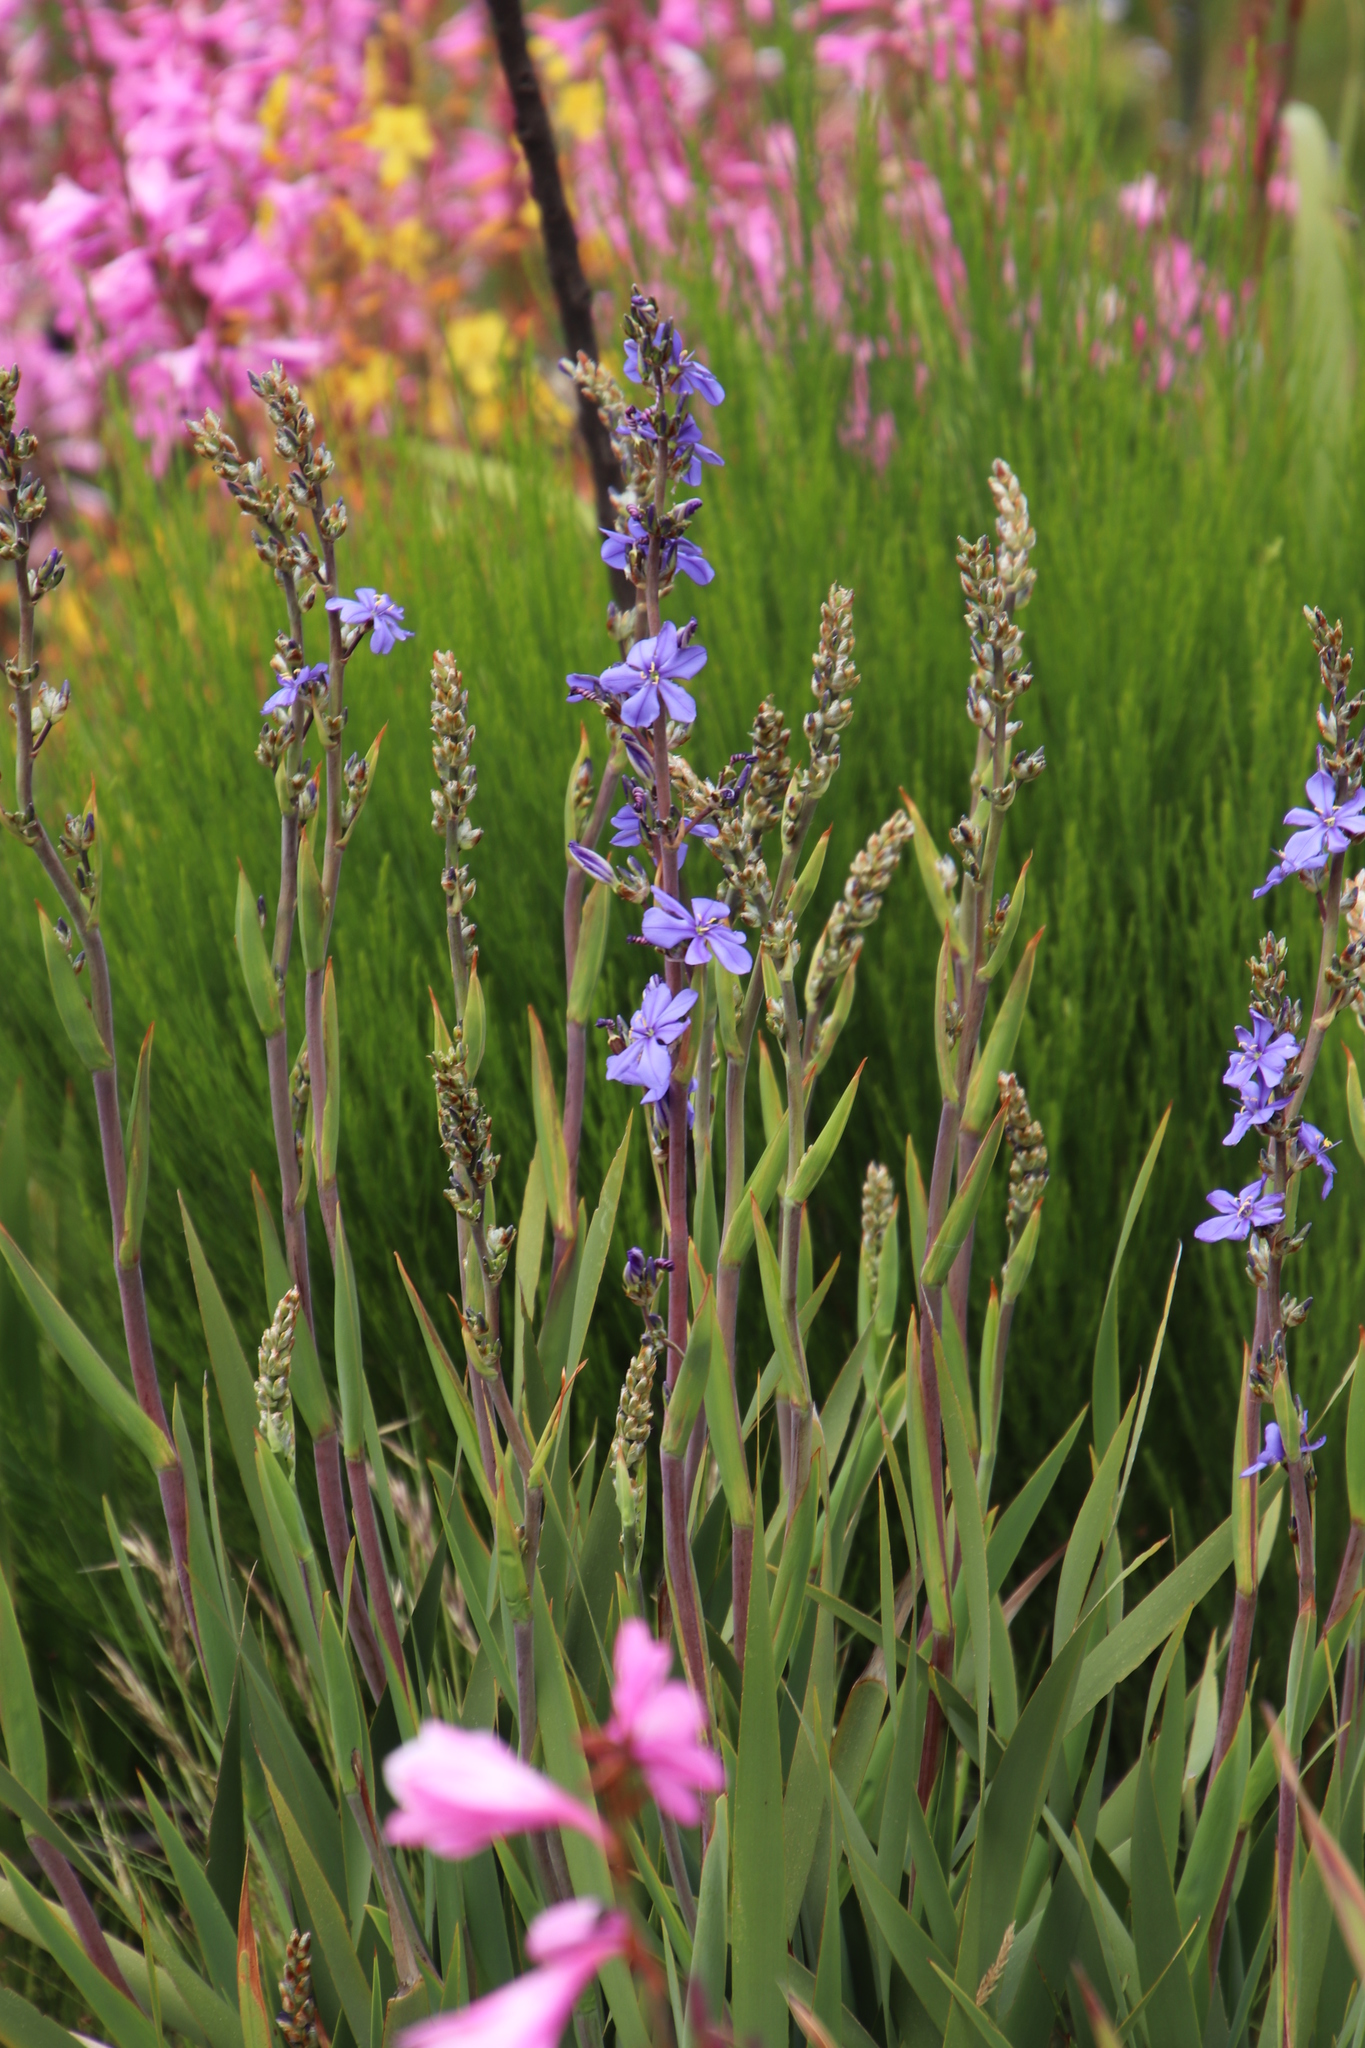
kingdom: Plantae
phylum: Tracheophyta
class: Liliopsida
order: Asparagales
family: Iridaceae
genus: Aristea
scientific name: Aristea bakeri
